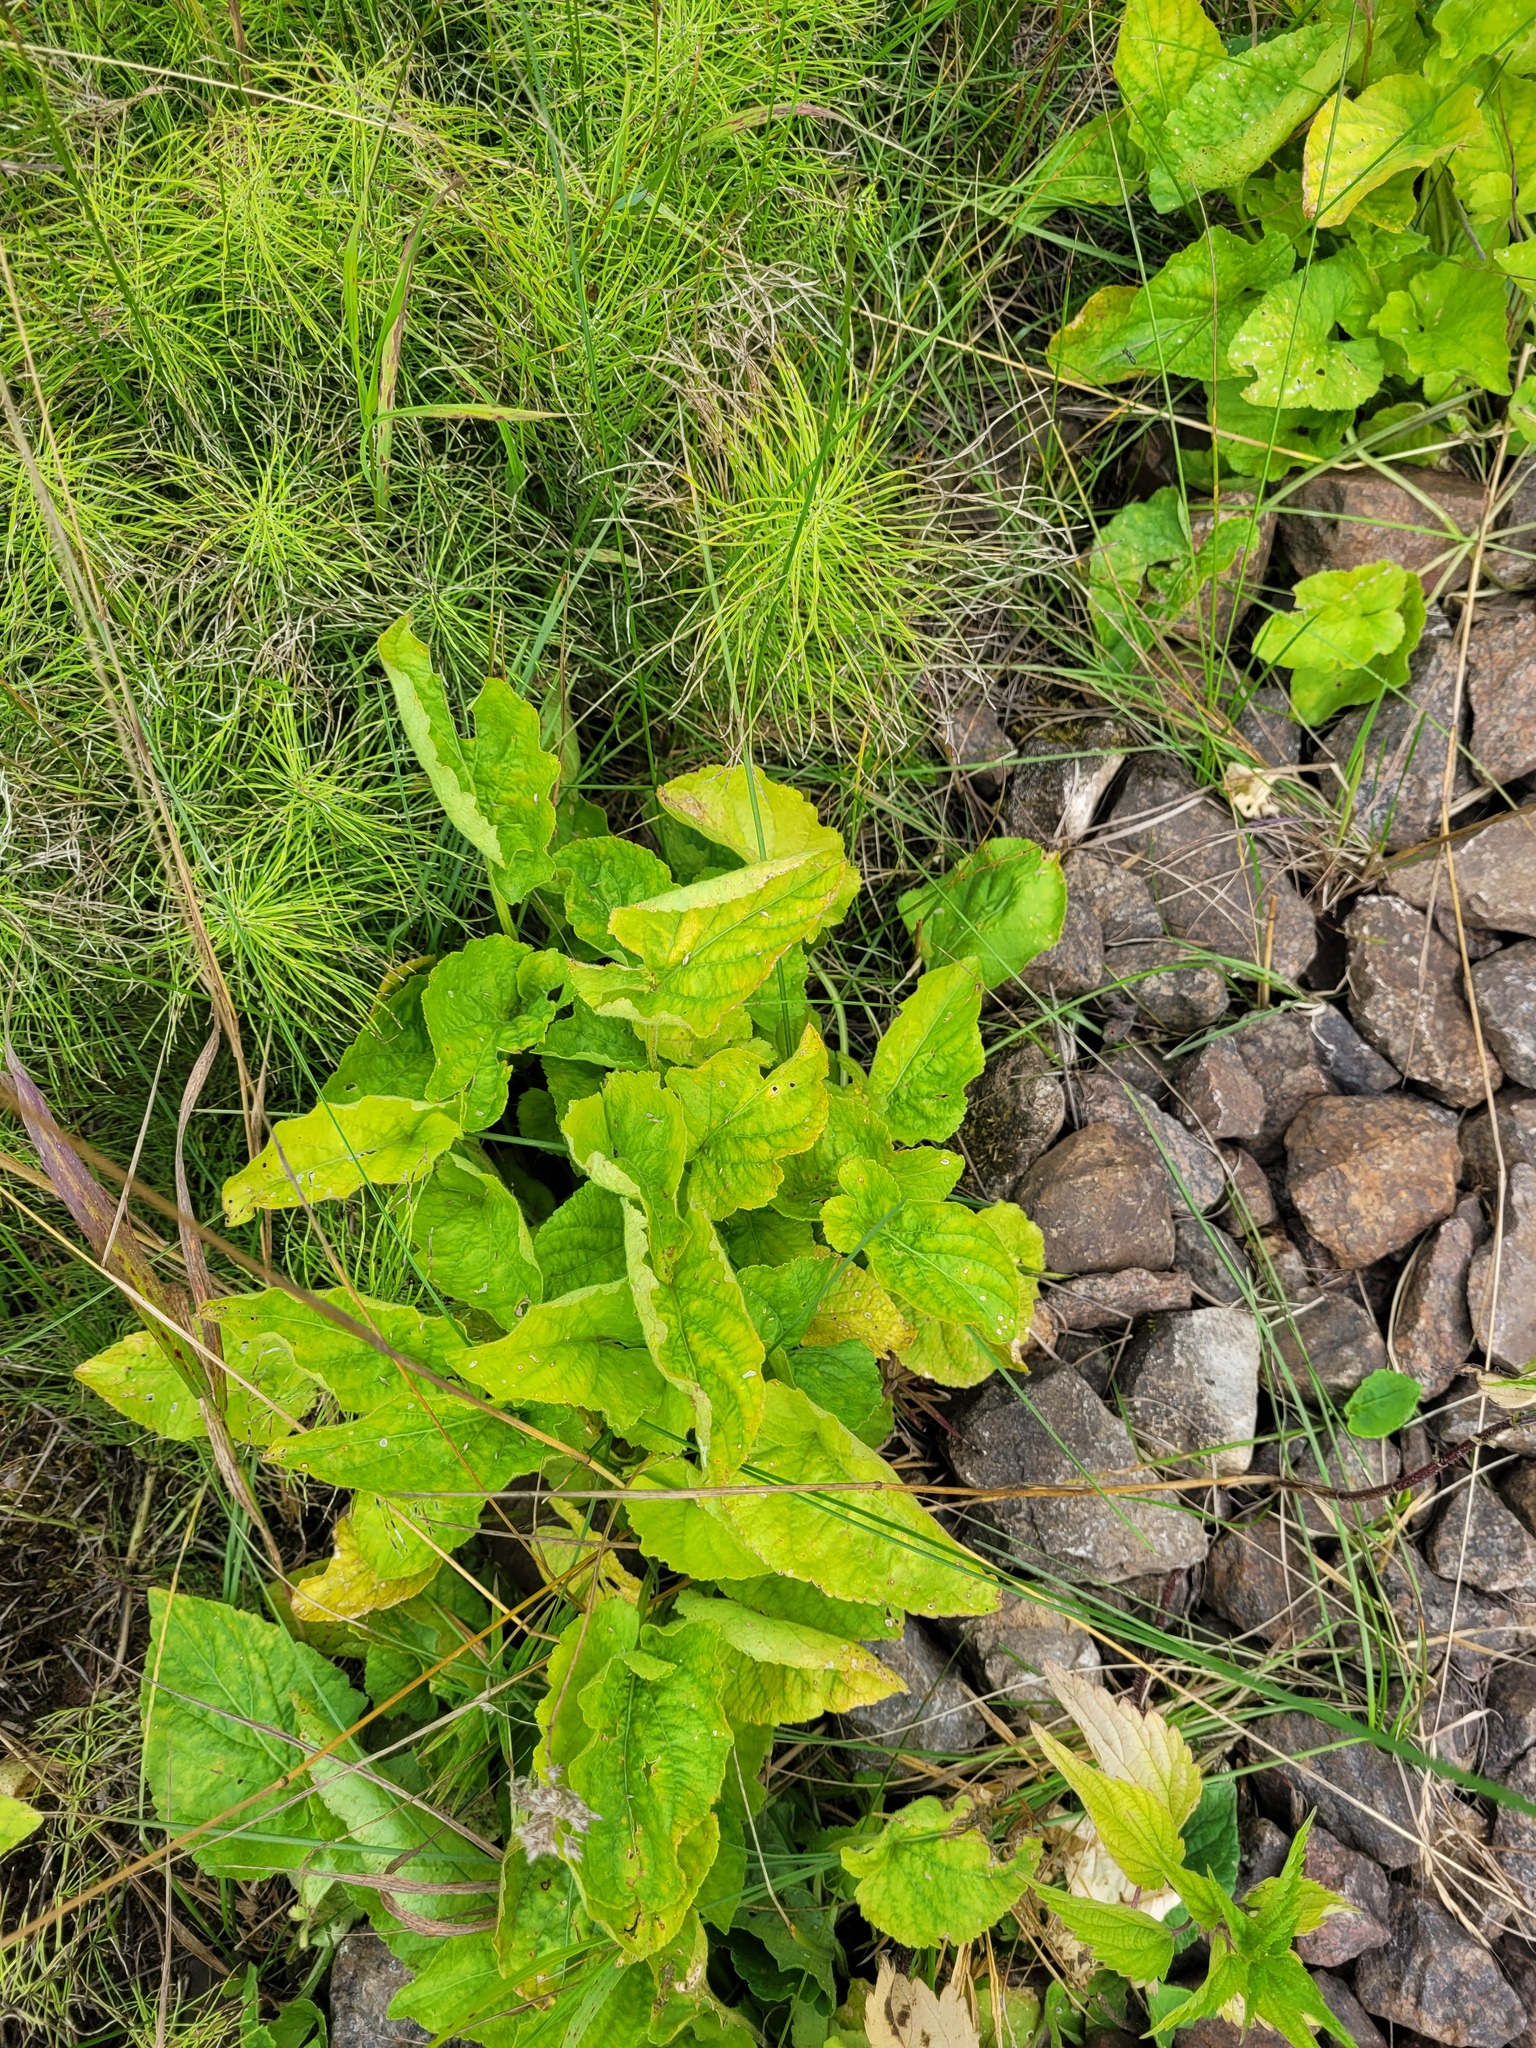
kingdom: Plantae
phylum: Tracheophyta
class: Magnoliopsida
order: Malpighiales
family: Violaceae
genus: Viola
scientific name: Viola hirta
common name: Hairy violet
